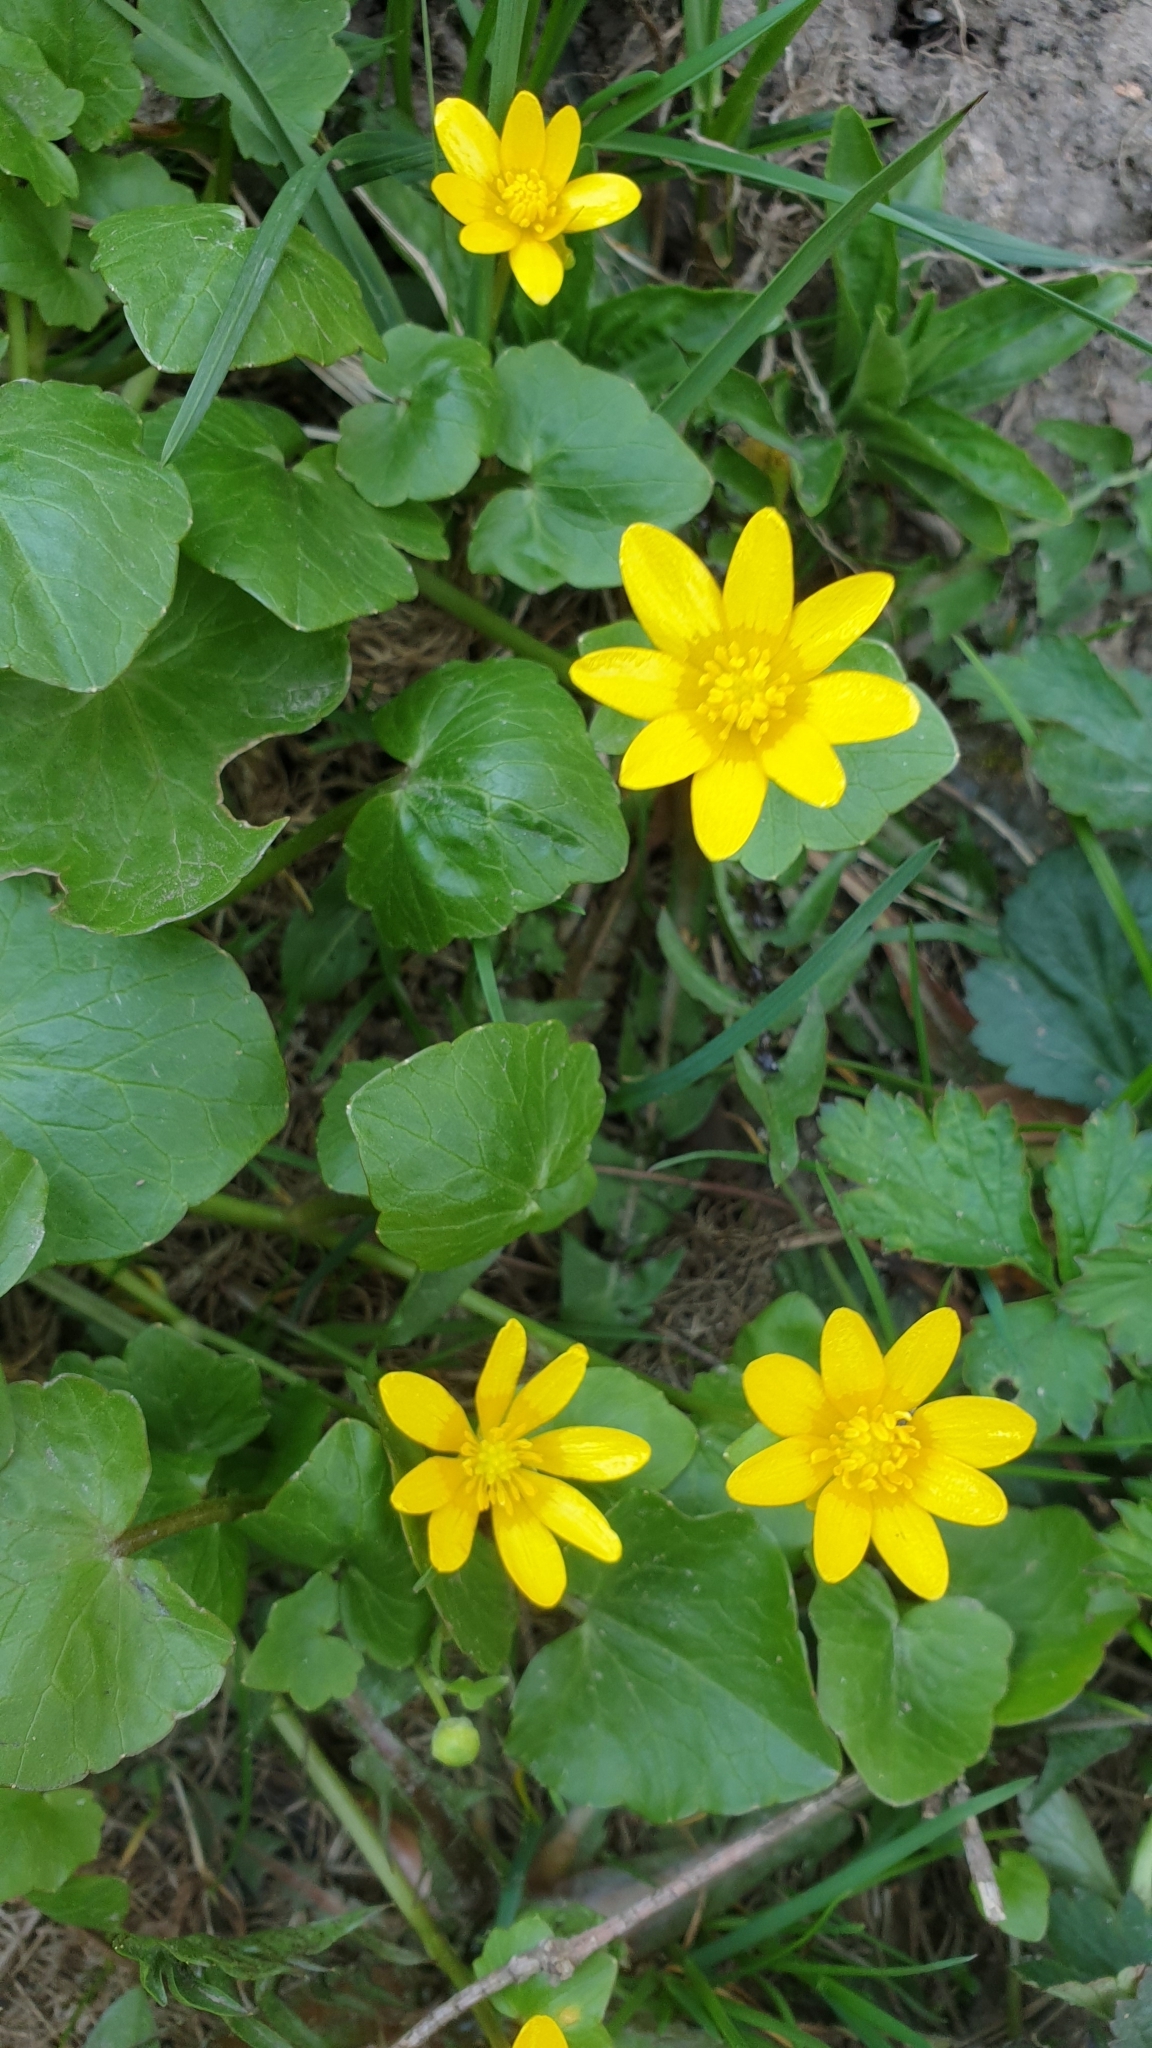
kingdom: Plantae
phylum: Tracheophyta
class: Magnoliopsida
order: Ranunculales
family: Ranunculaceae
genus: Ficaria
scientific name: Ficaria verna
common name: Lesser celandine
